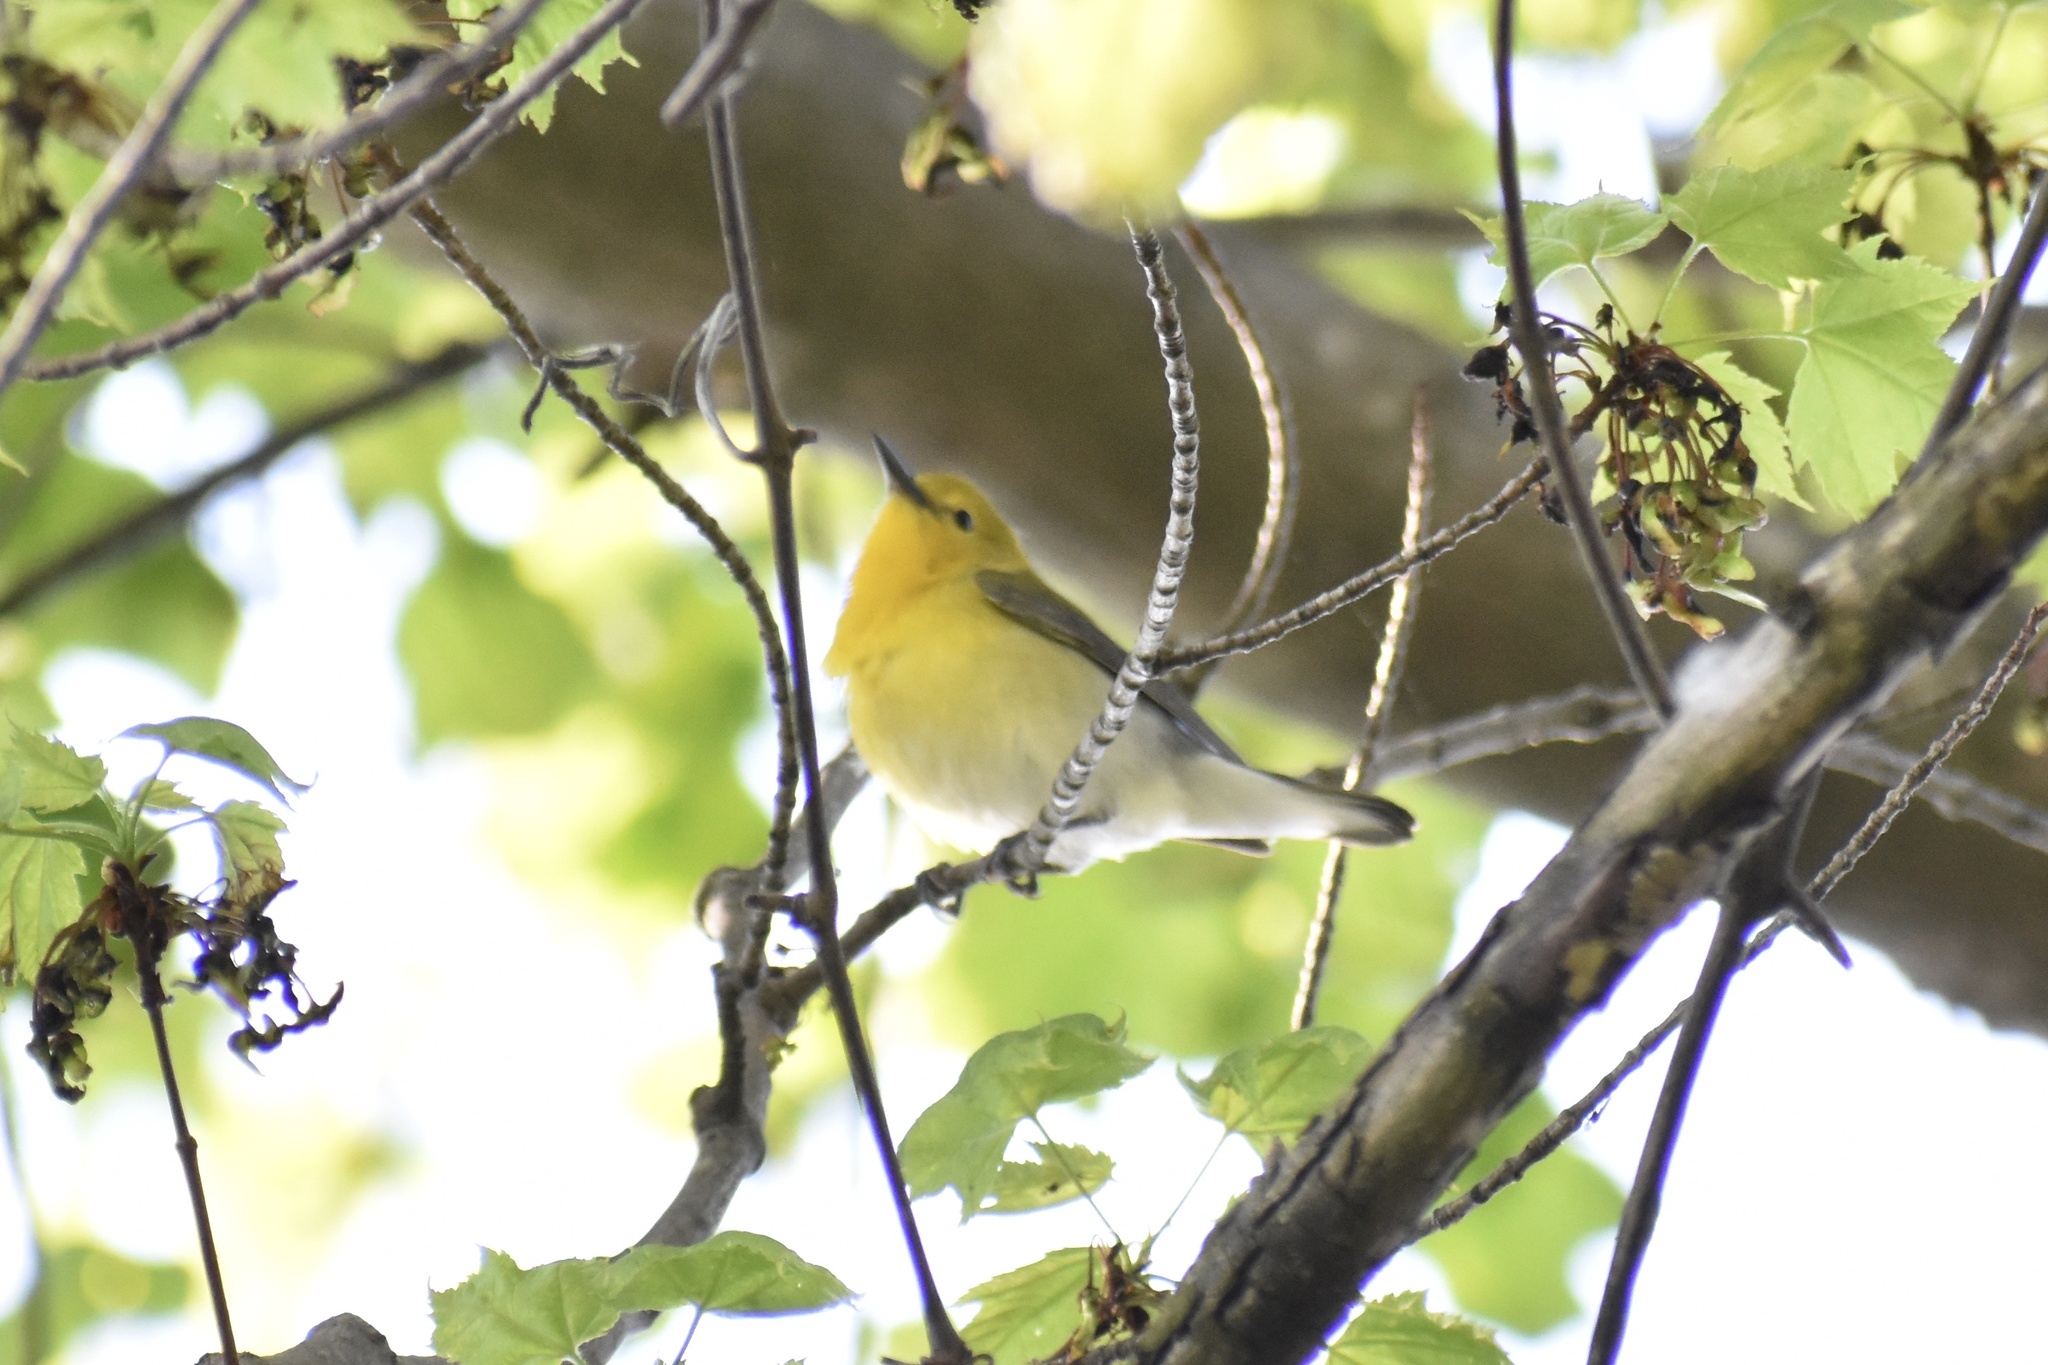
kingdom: Animalia
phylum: Chordata
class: Aves
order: Passeriformes
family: Parulidae
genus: Protonotaria
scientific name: Protonotaria citrea
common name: Prothonotary warbler
